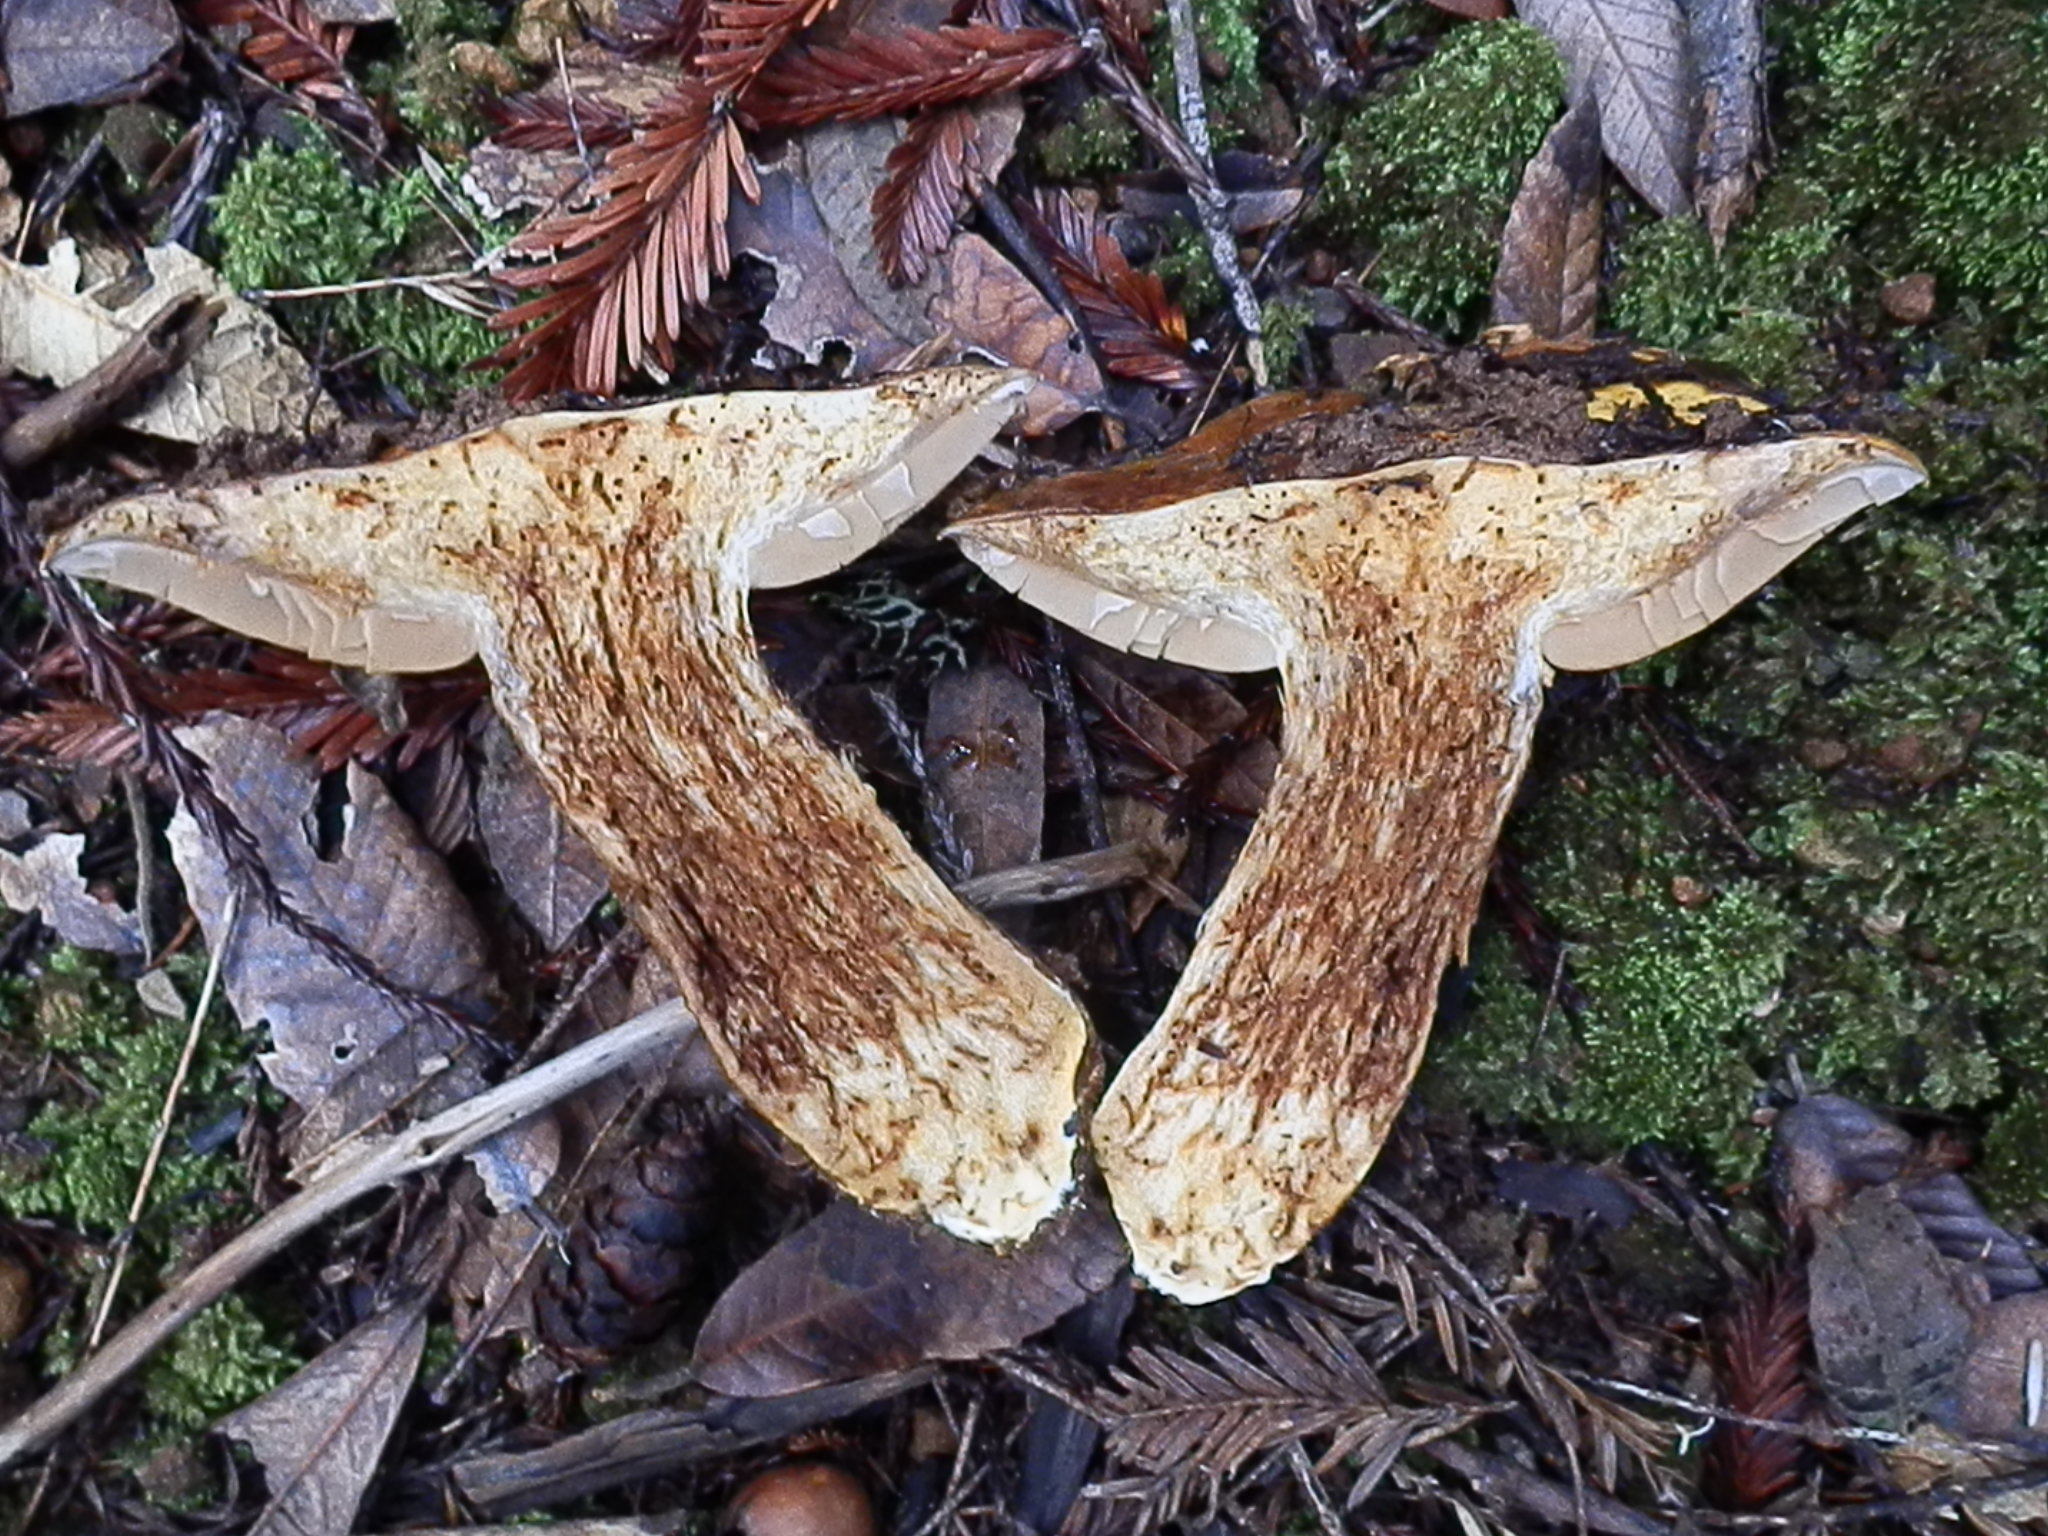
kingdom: Fungi
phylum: Basidiomycota
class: Agaricomycetes
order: Agaricales
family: Cortinariaceae
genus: Phlegmacium
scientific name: Phlegmacium ponderosum
